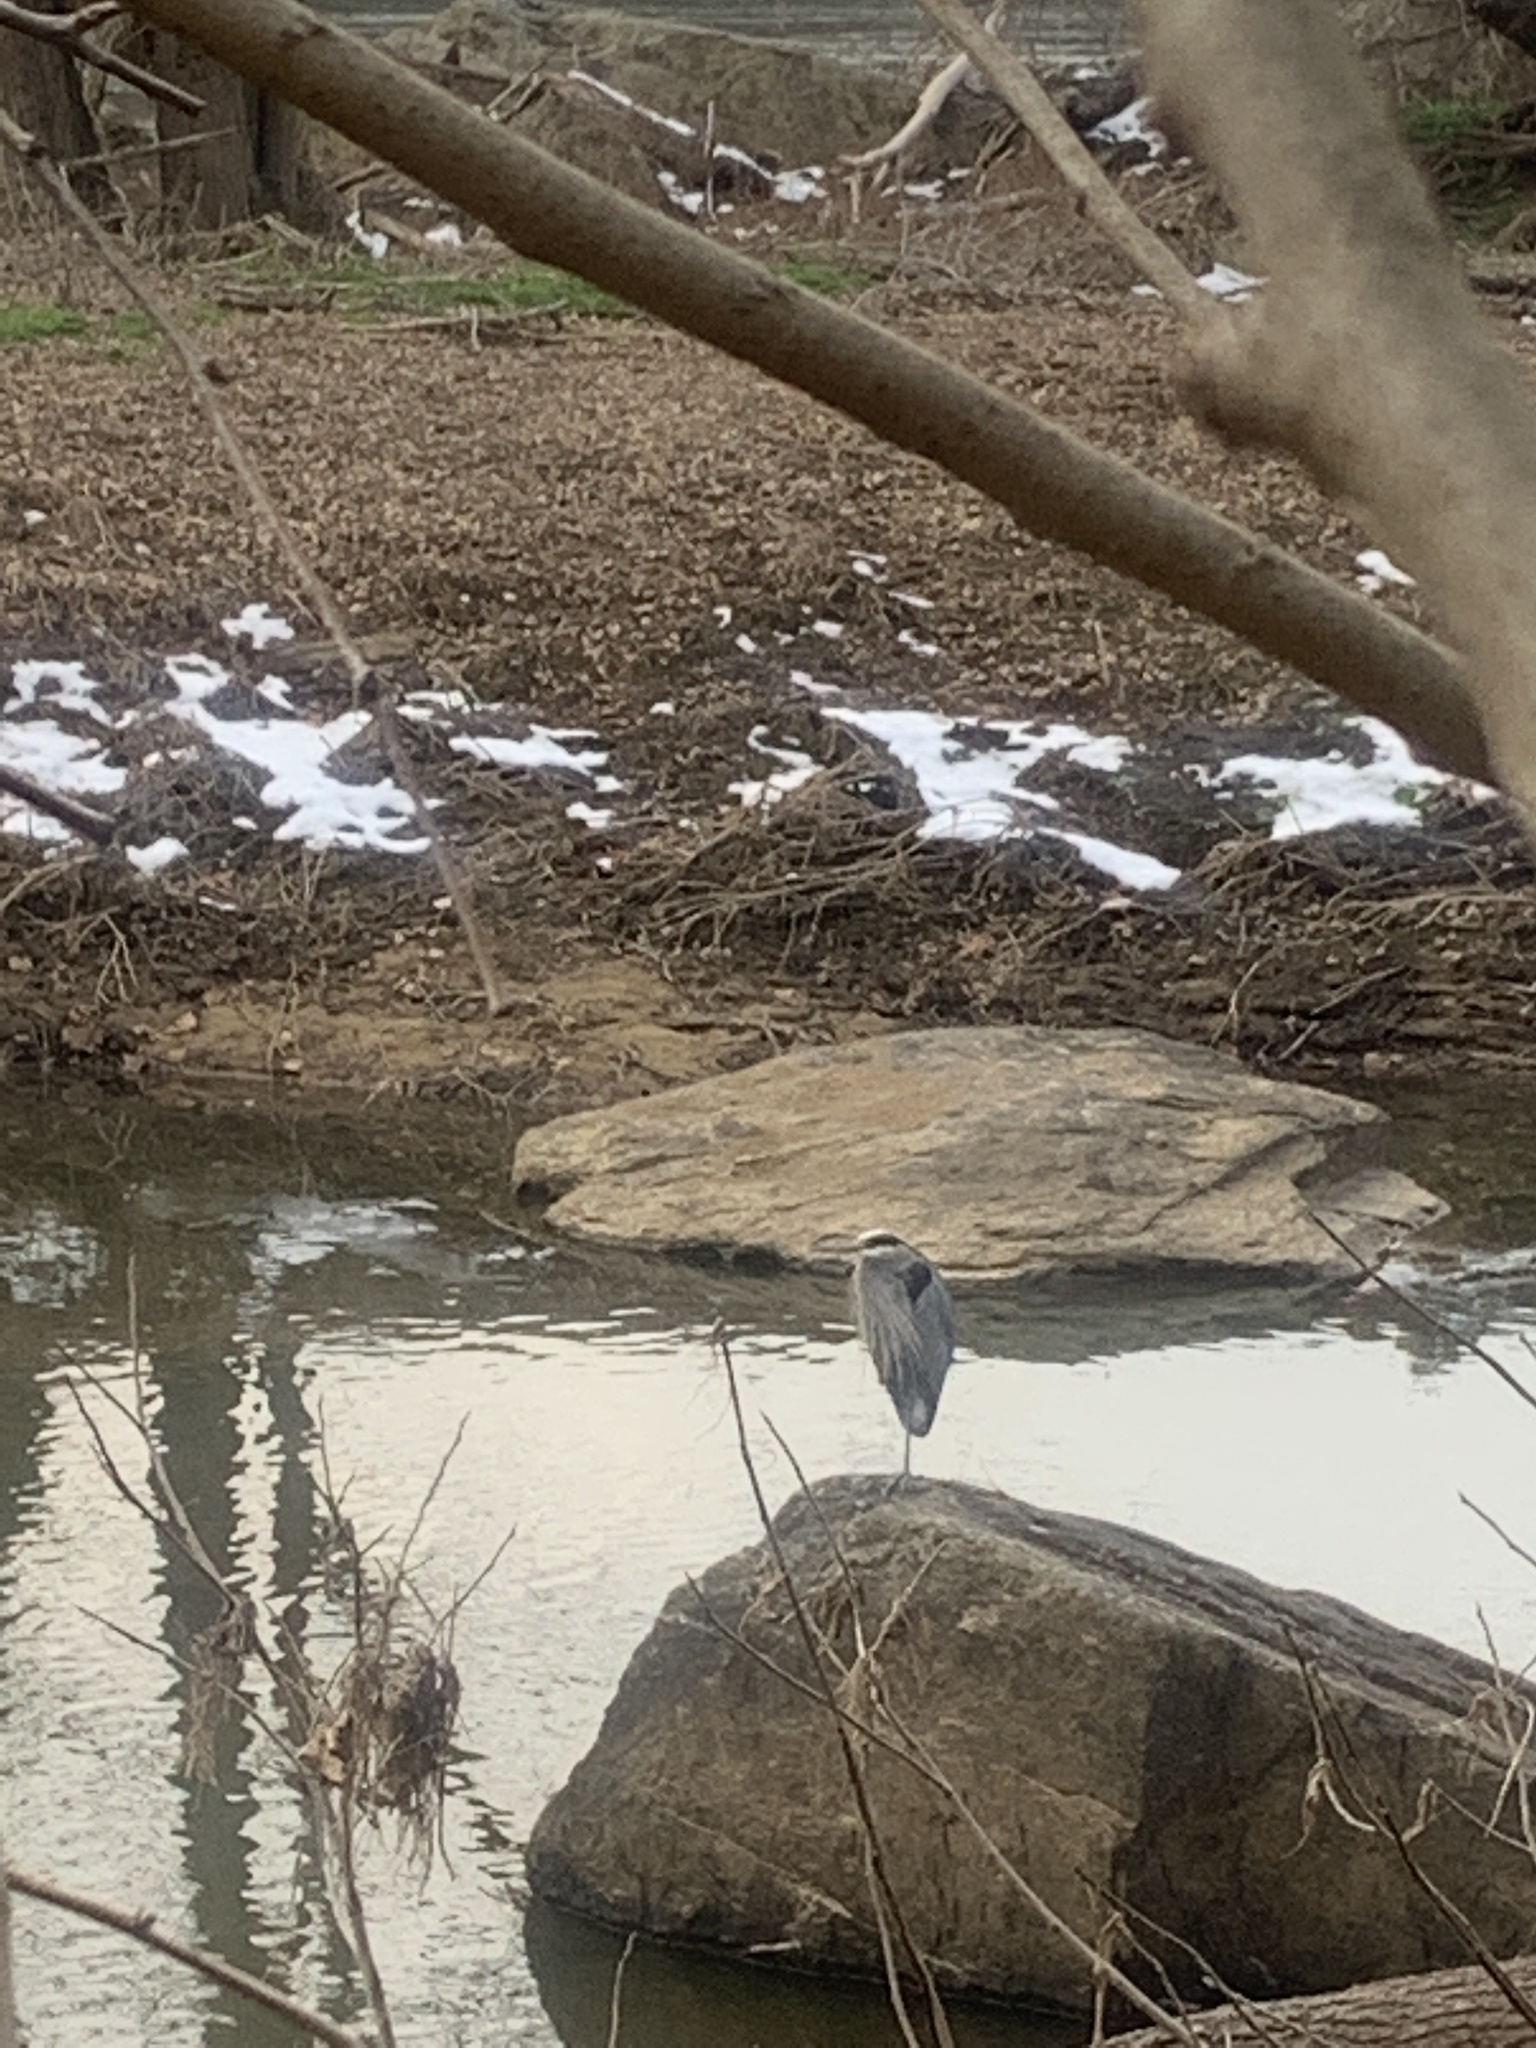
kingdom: Animalia
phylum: Chordata
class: Aves
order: Pelecaniformes
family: Ardeidae
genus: Ardea
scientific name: Ardea herodias
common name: Great blue heron
